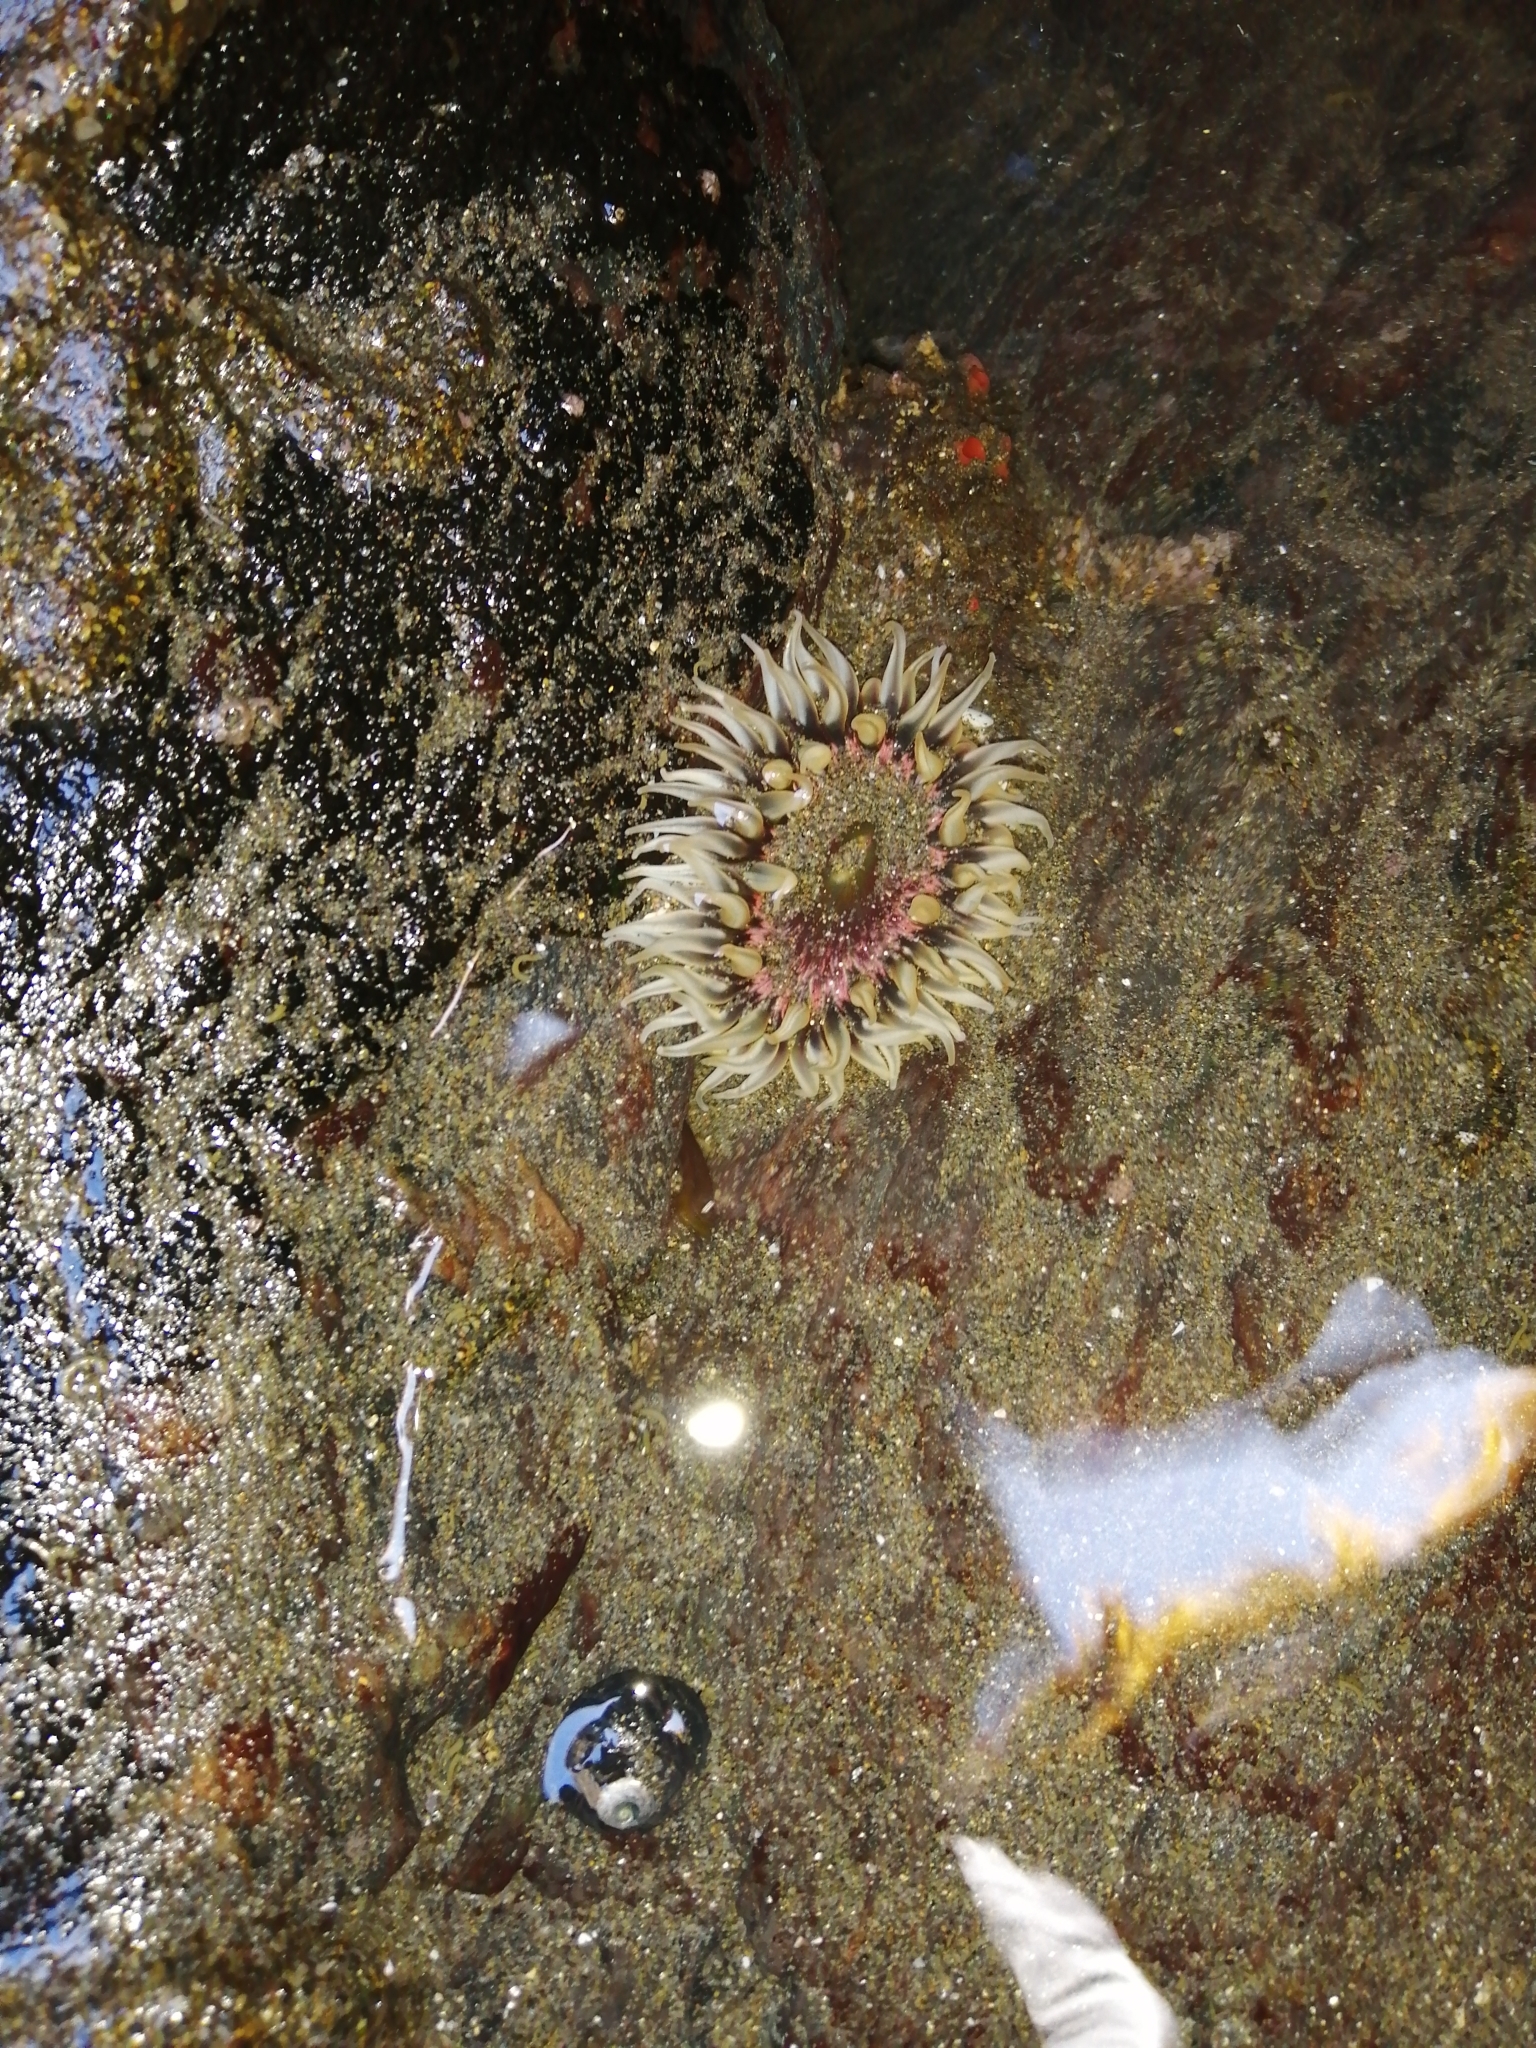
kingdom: Animalia
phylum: Cnidaria
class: Anthozoa
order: Actiniaria
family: Actiniidae
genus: Oulactis
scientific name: Oulactis concinnata
